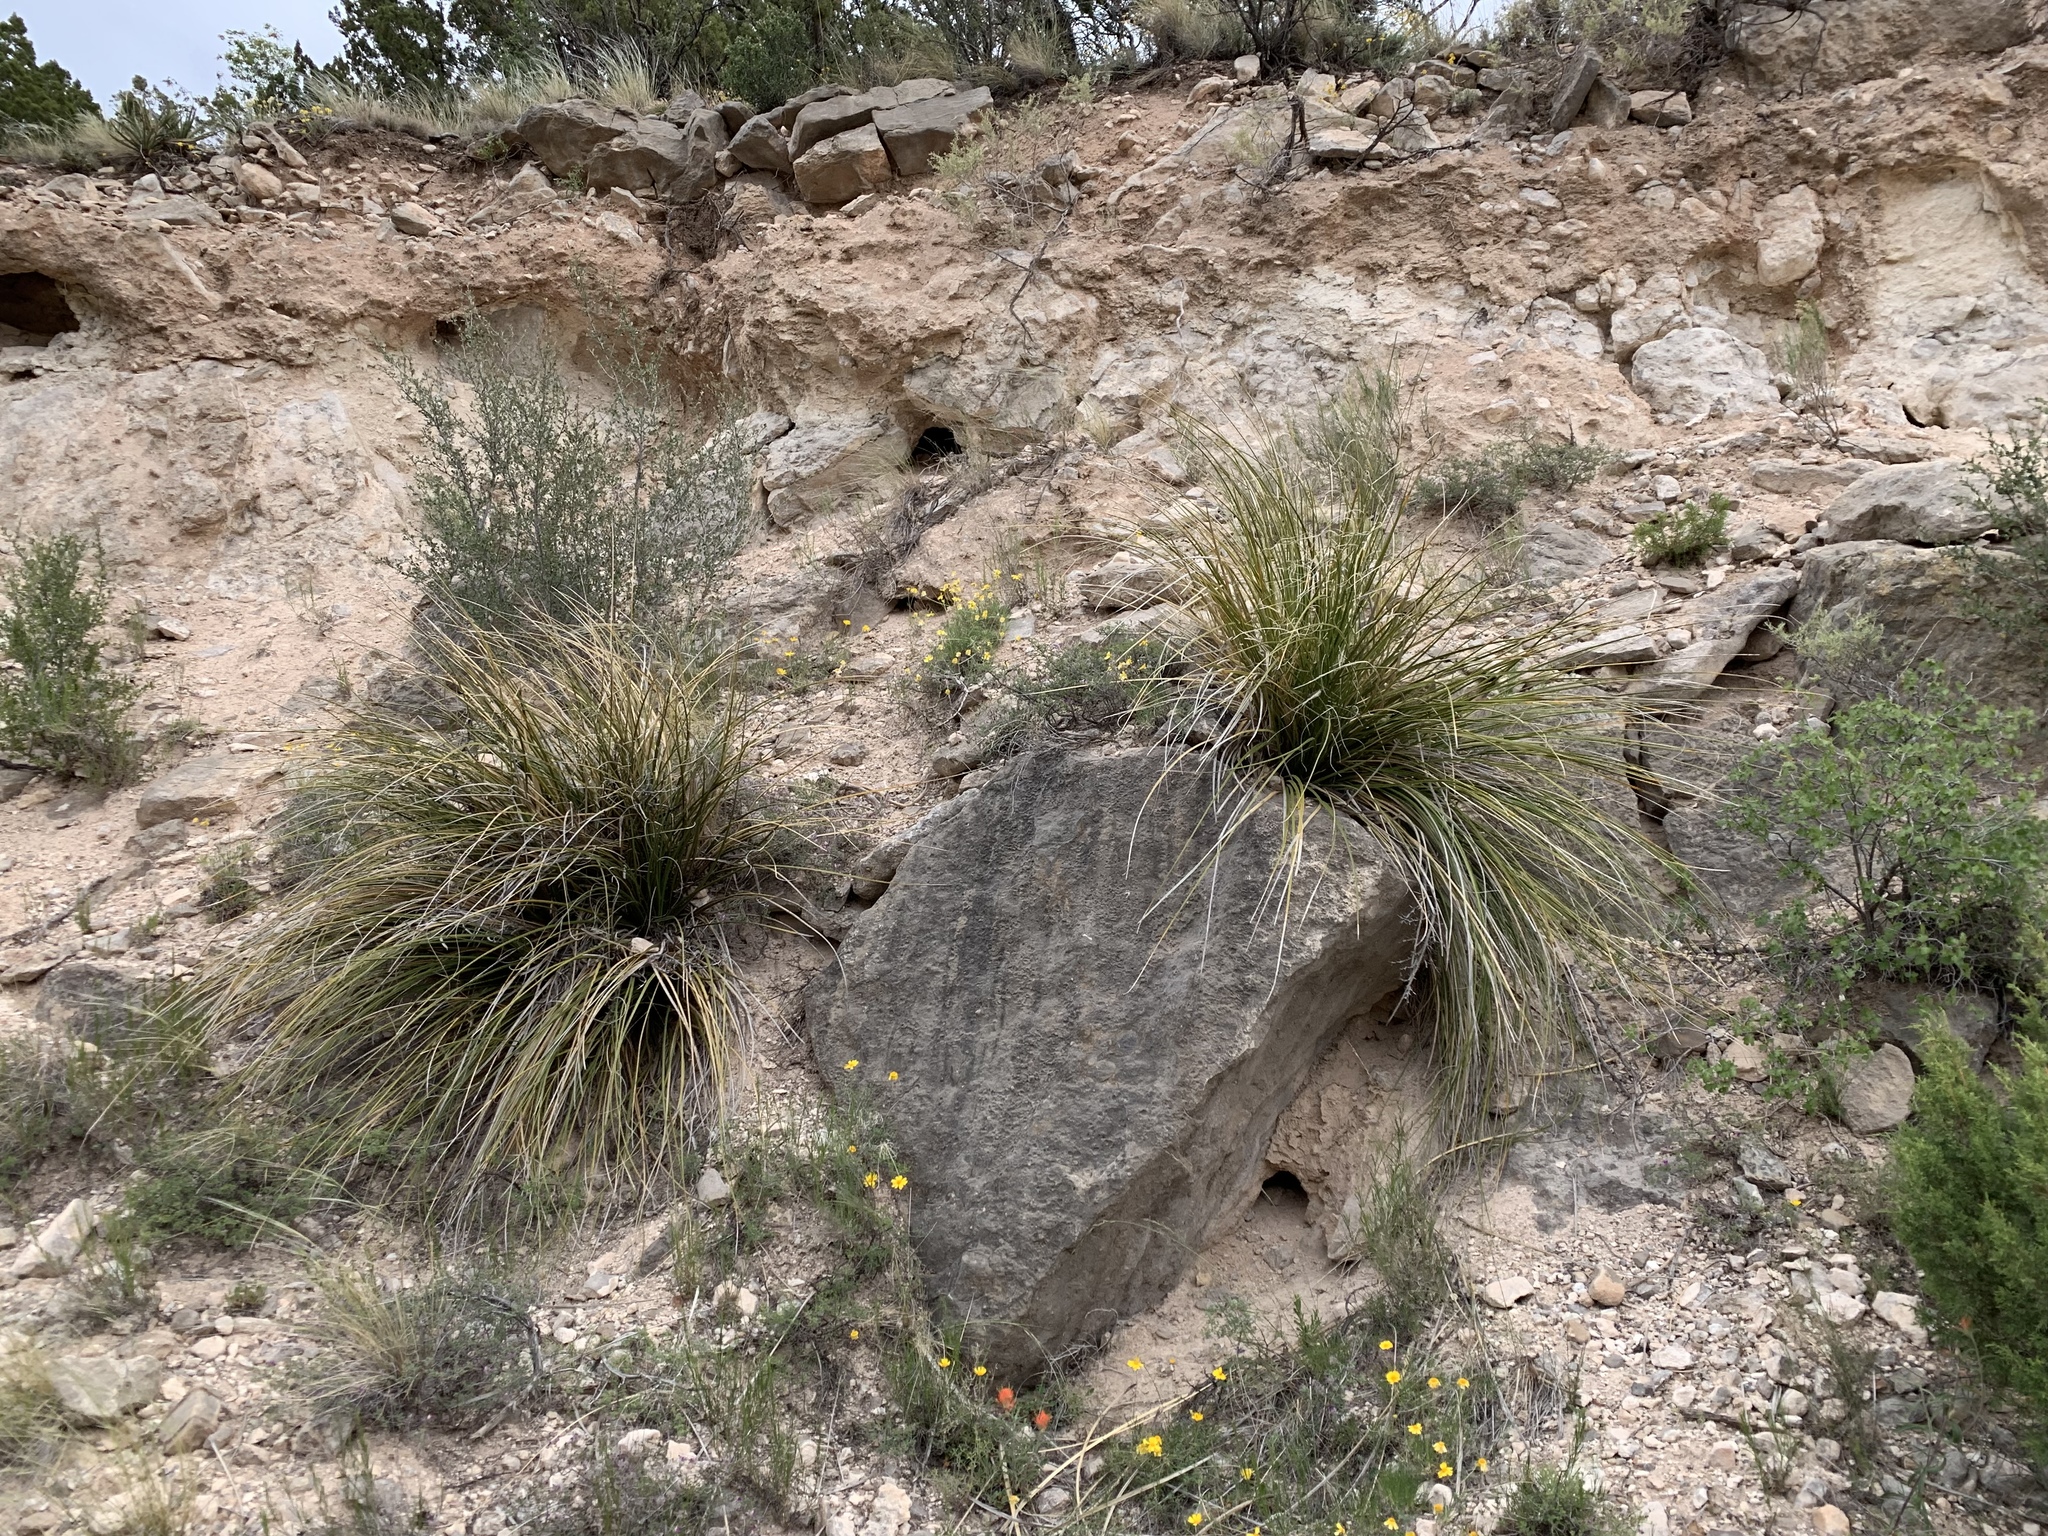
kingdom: Plantae
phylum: Tracheophyta
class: Liliopsida
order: Asparagales
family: Asparagaceae
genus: Nolina
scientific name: Nolina microcarpa
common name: Bear-grass
